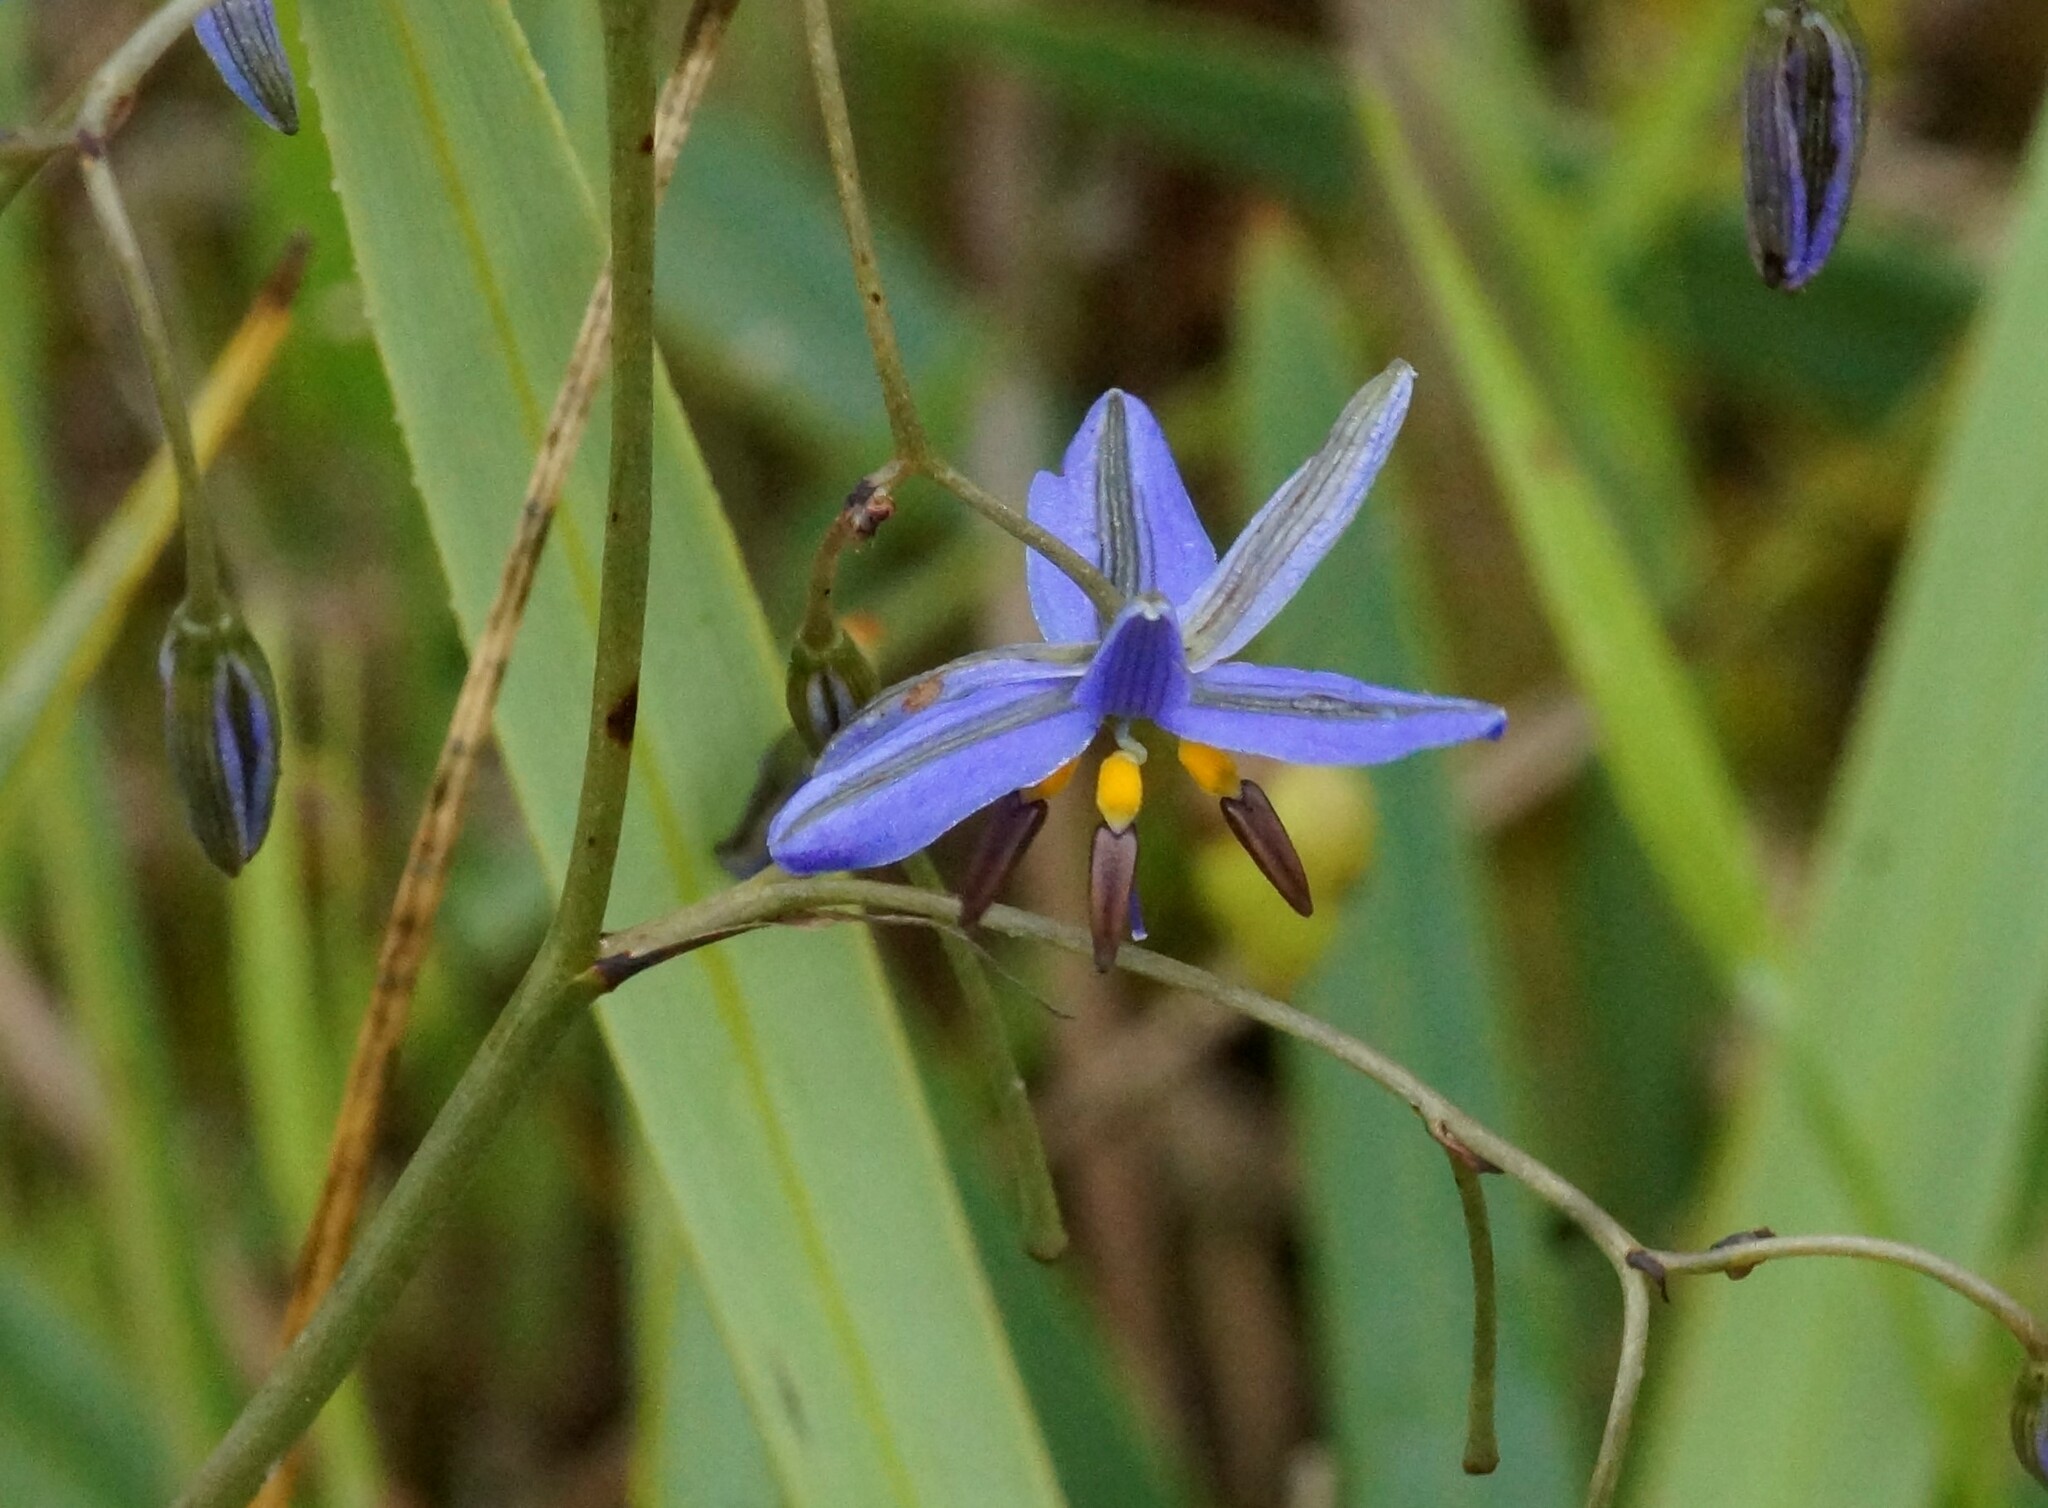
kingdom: Plantae
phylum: Tracheophyta
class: Liliopsida
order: Asparagales
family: Asphodelaceae
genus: Dianella
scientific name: Dianella revoluta
